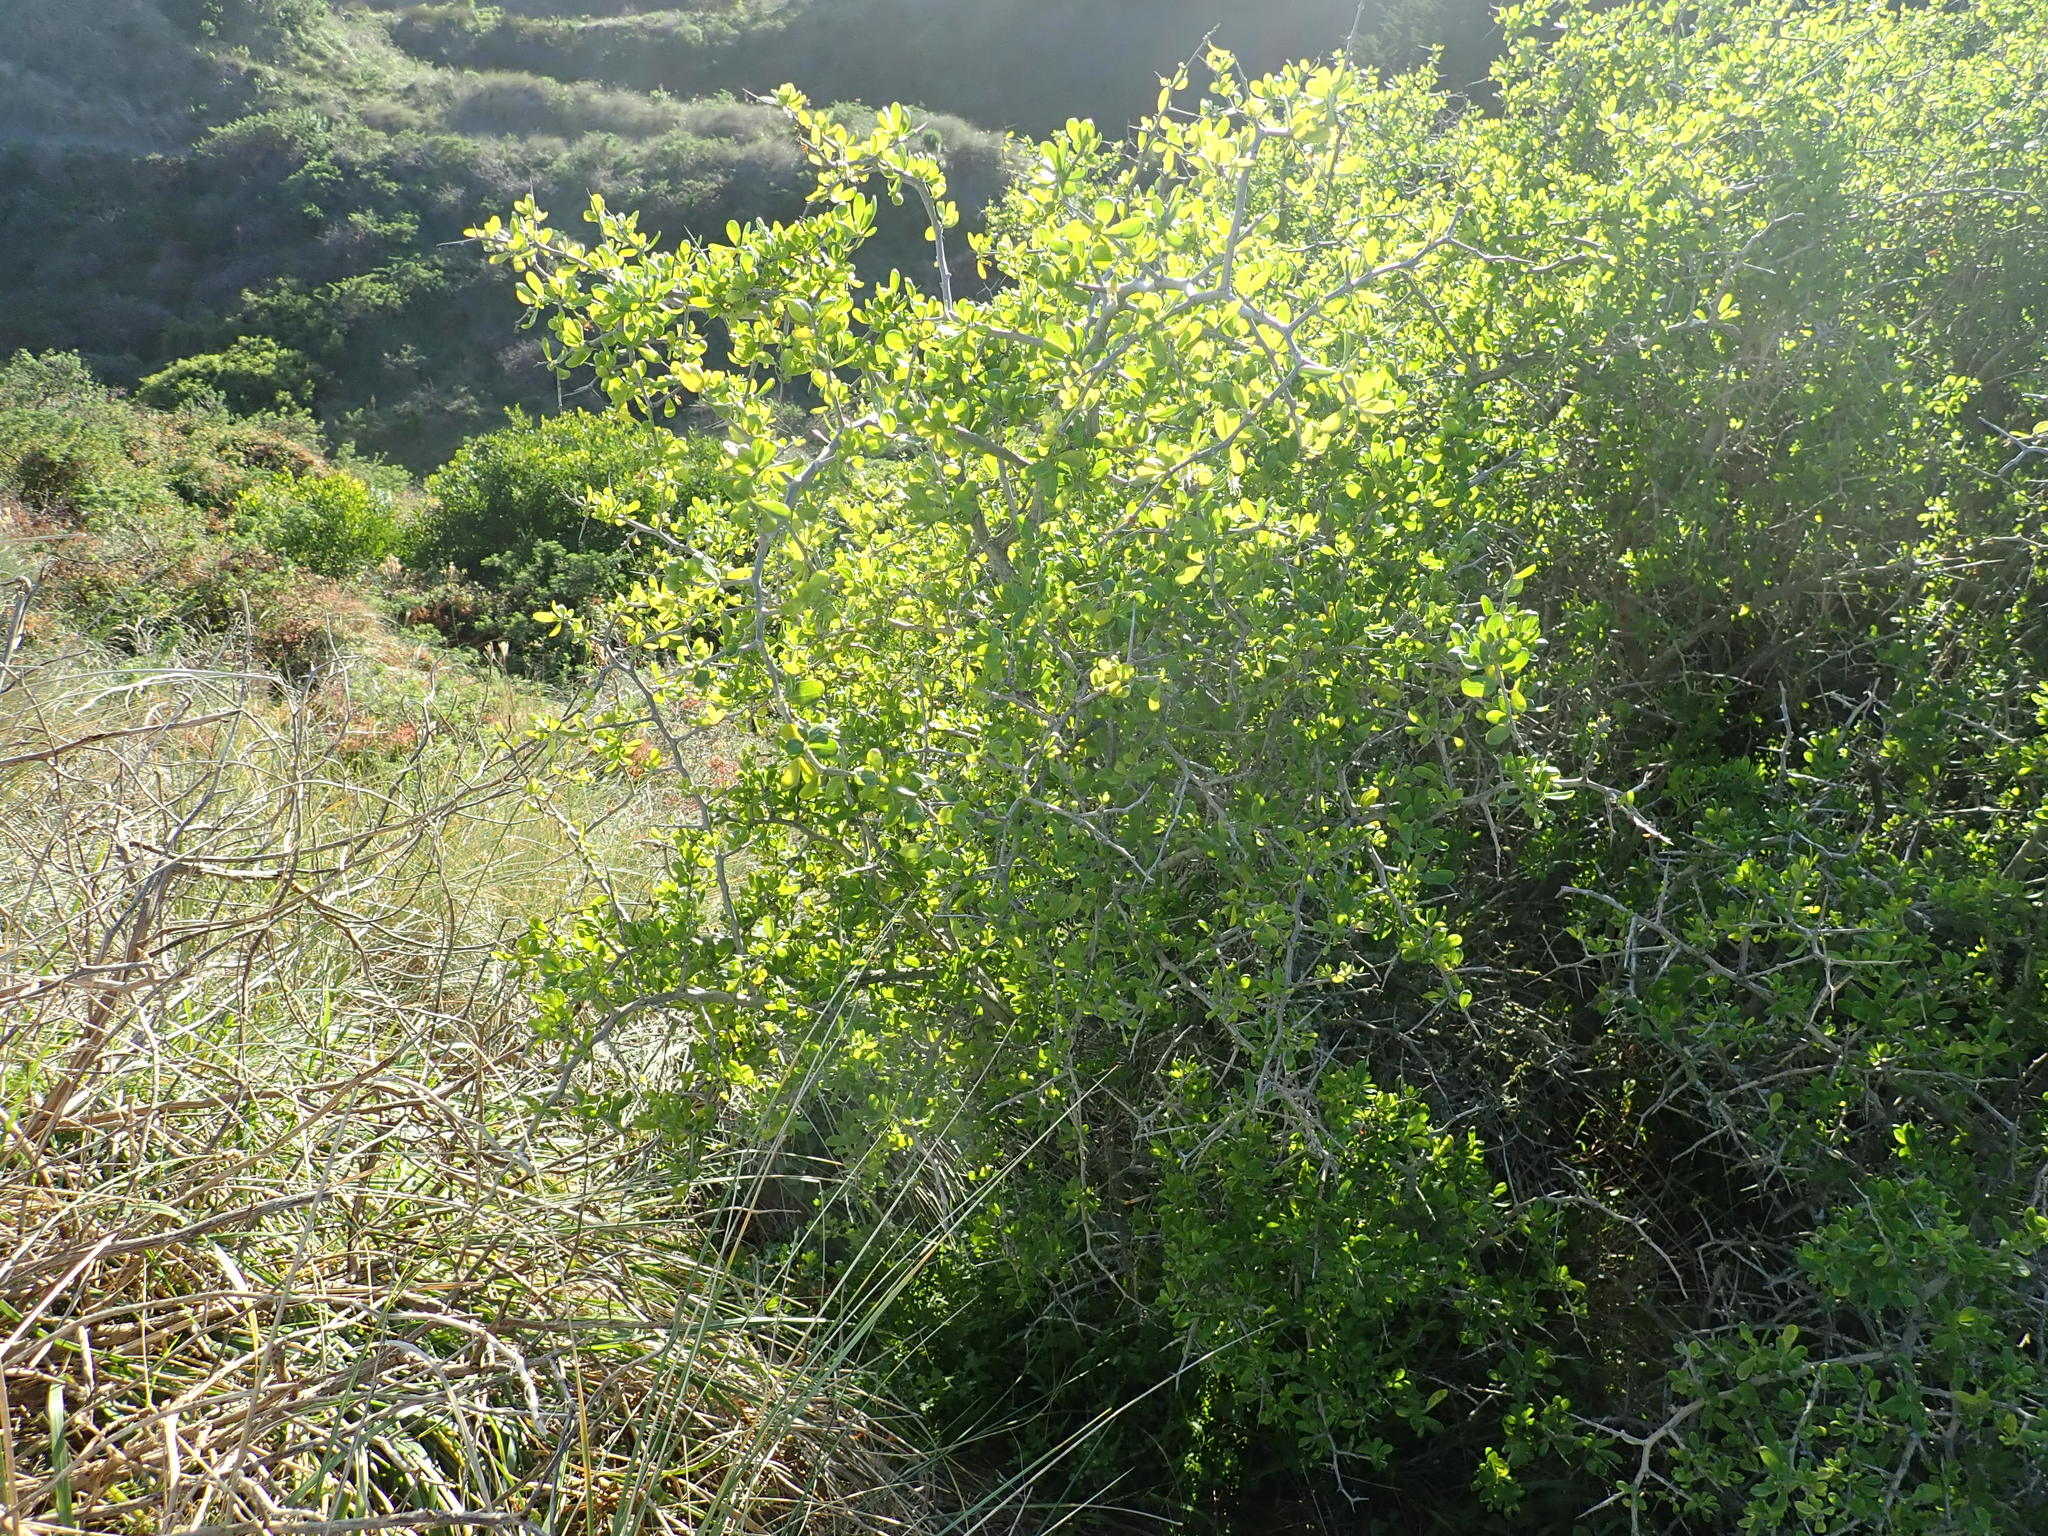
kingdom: Plantae
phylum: Tracheophyta
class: Magnoliopsida
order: Solanales
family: Solanaceae
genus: Lycium
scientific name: Lycium ferocissimum
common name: African boxthorn
